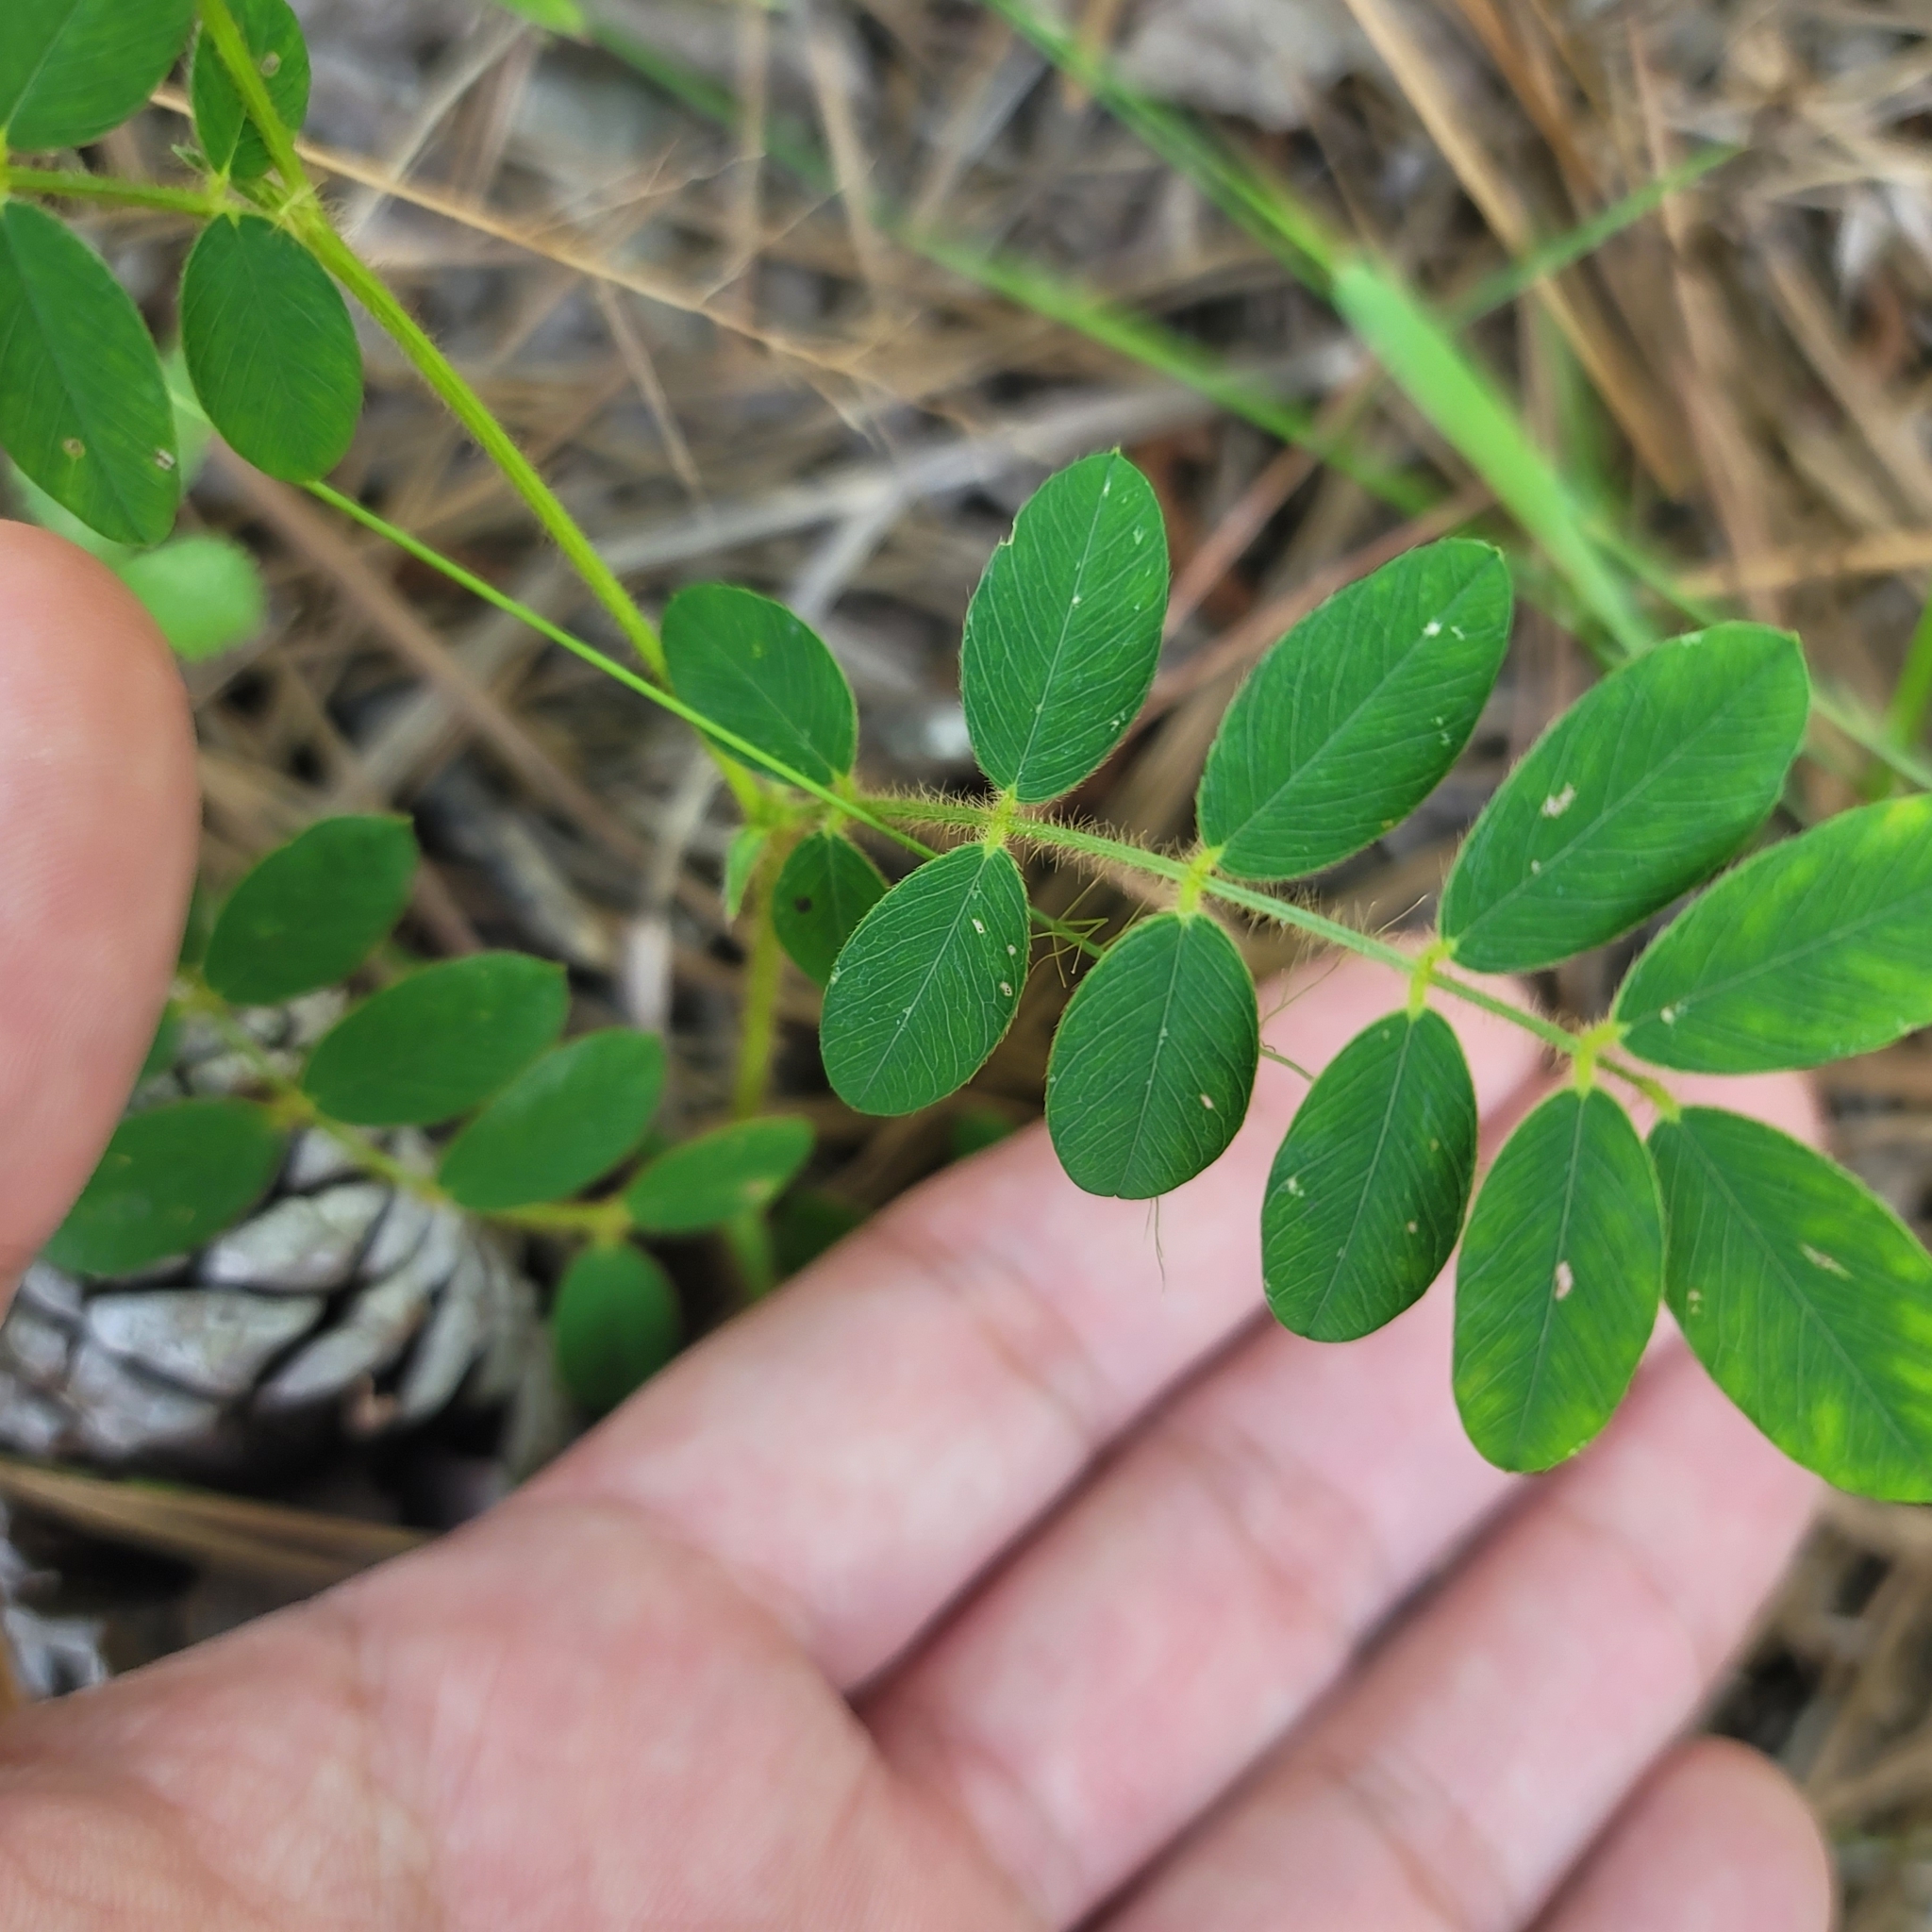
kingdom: Plantae
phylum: Tracheophyta
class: Magnoliopsida
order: Fabales
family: Fabaceae
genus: Tephrosia
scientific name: Tephrosia spicata
